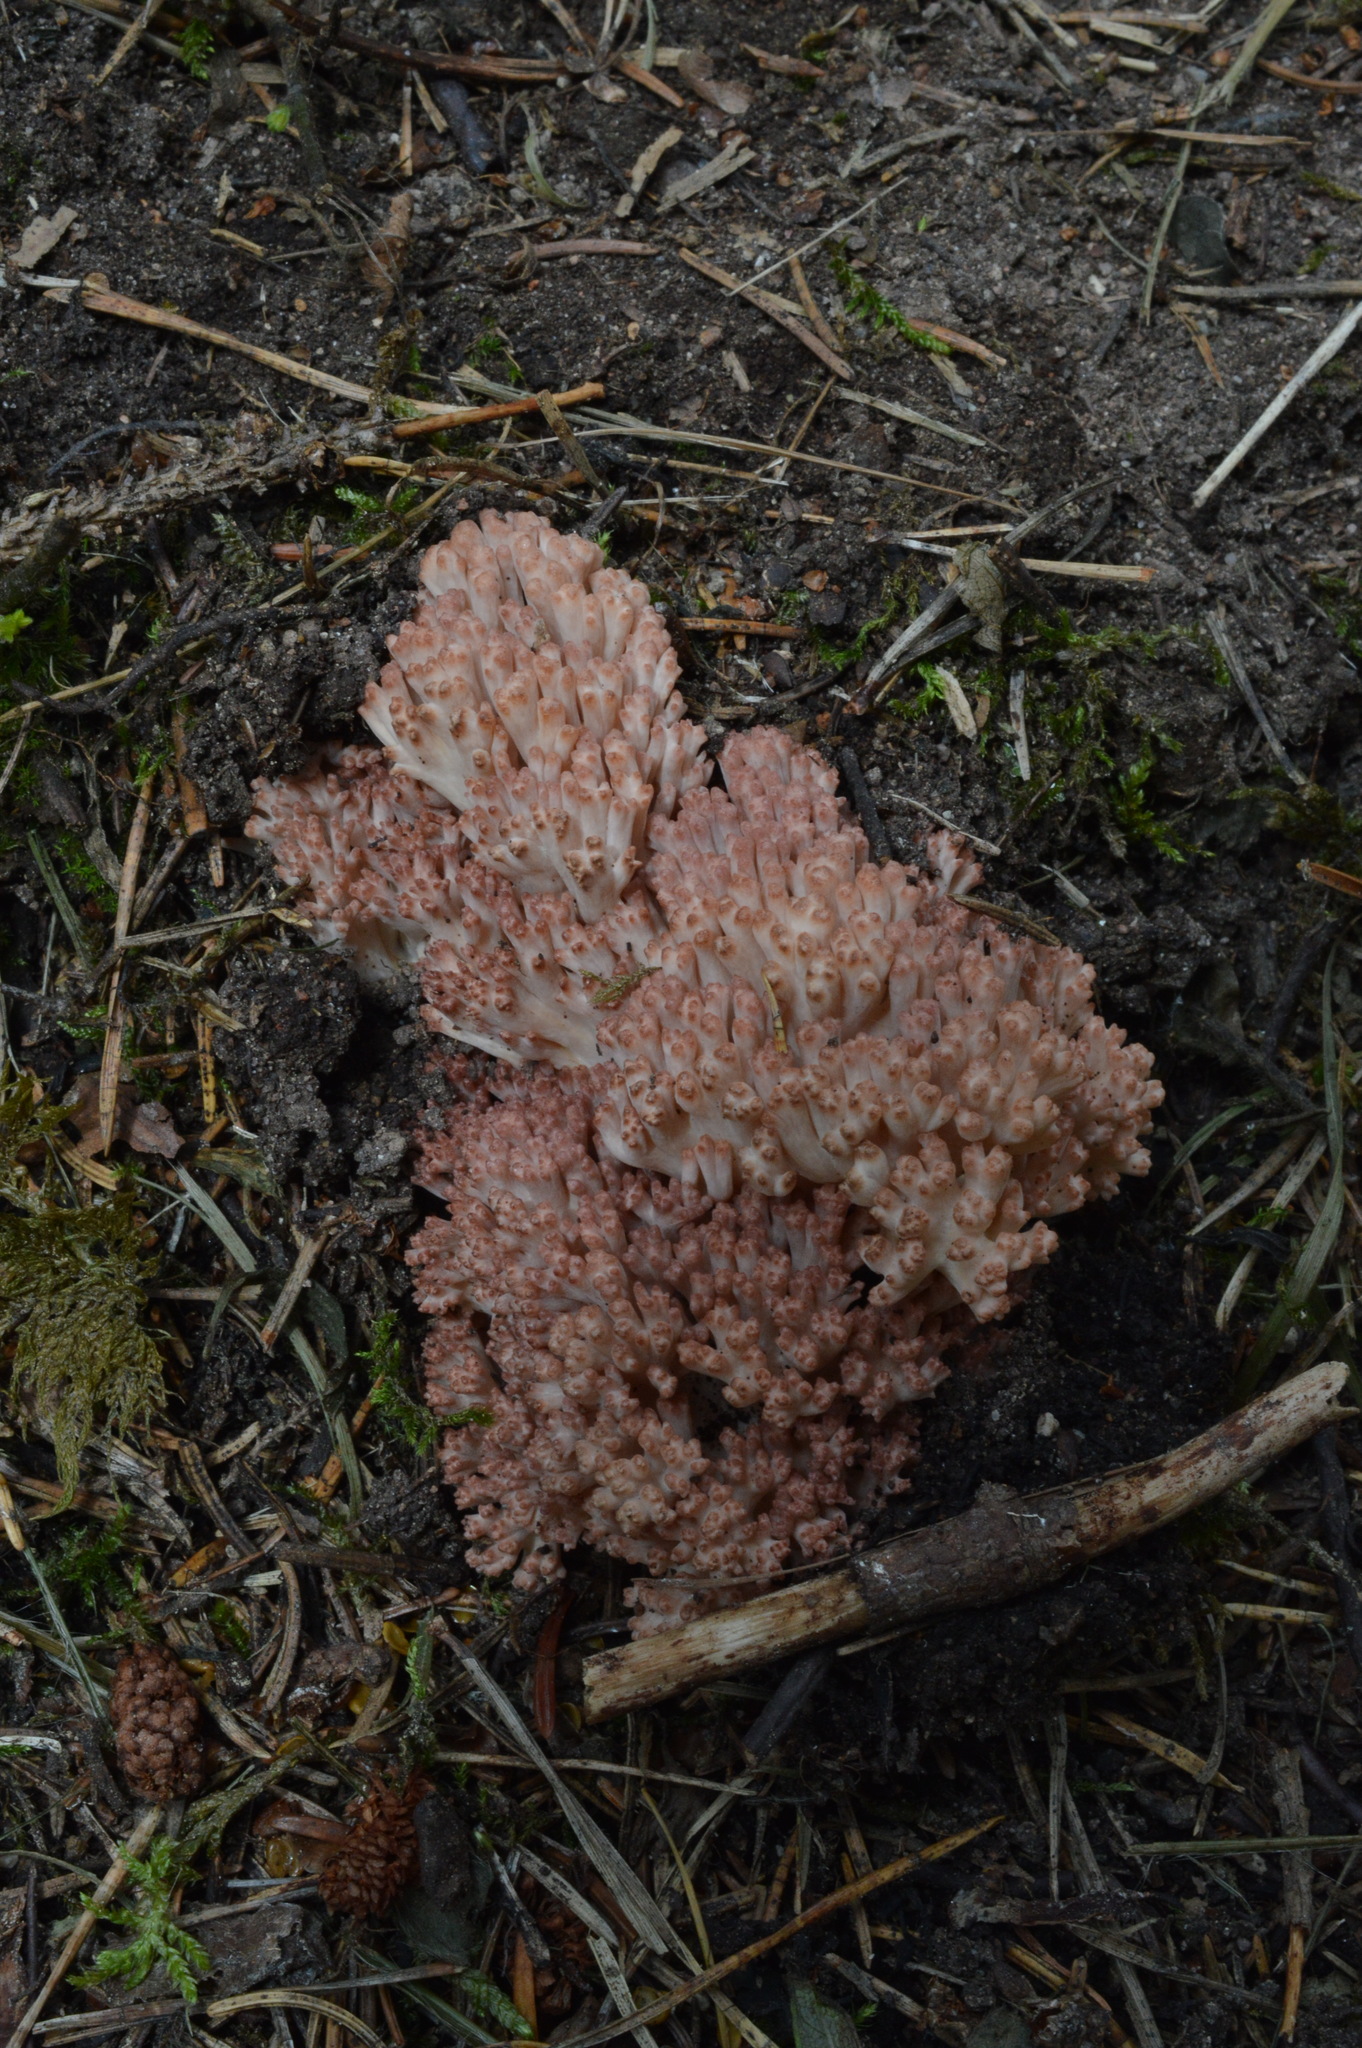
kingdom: Fungi
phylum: Basidiomycota
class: Agaricomycetes
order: Gomphales
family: Gomphaceae
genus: Ramaria
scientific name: Ramaria botrytis
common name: Rosso coral
